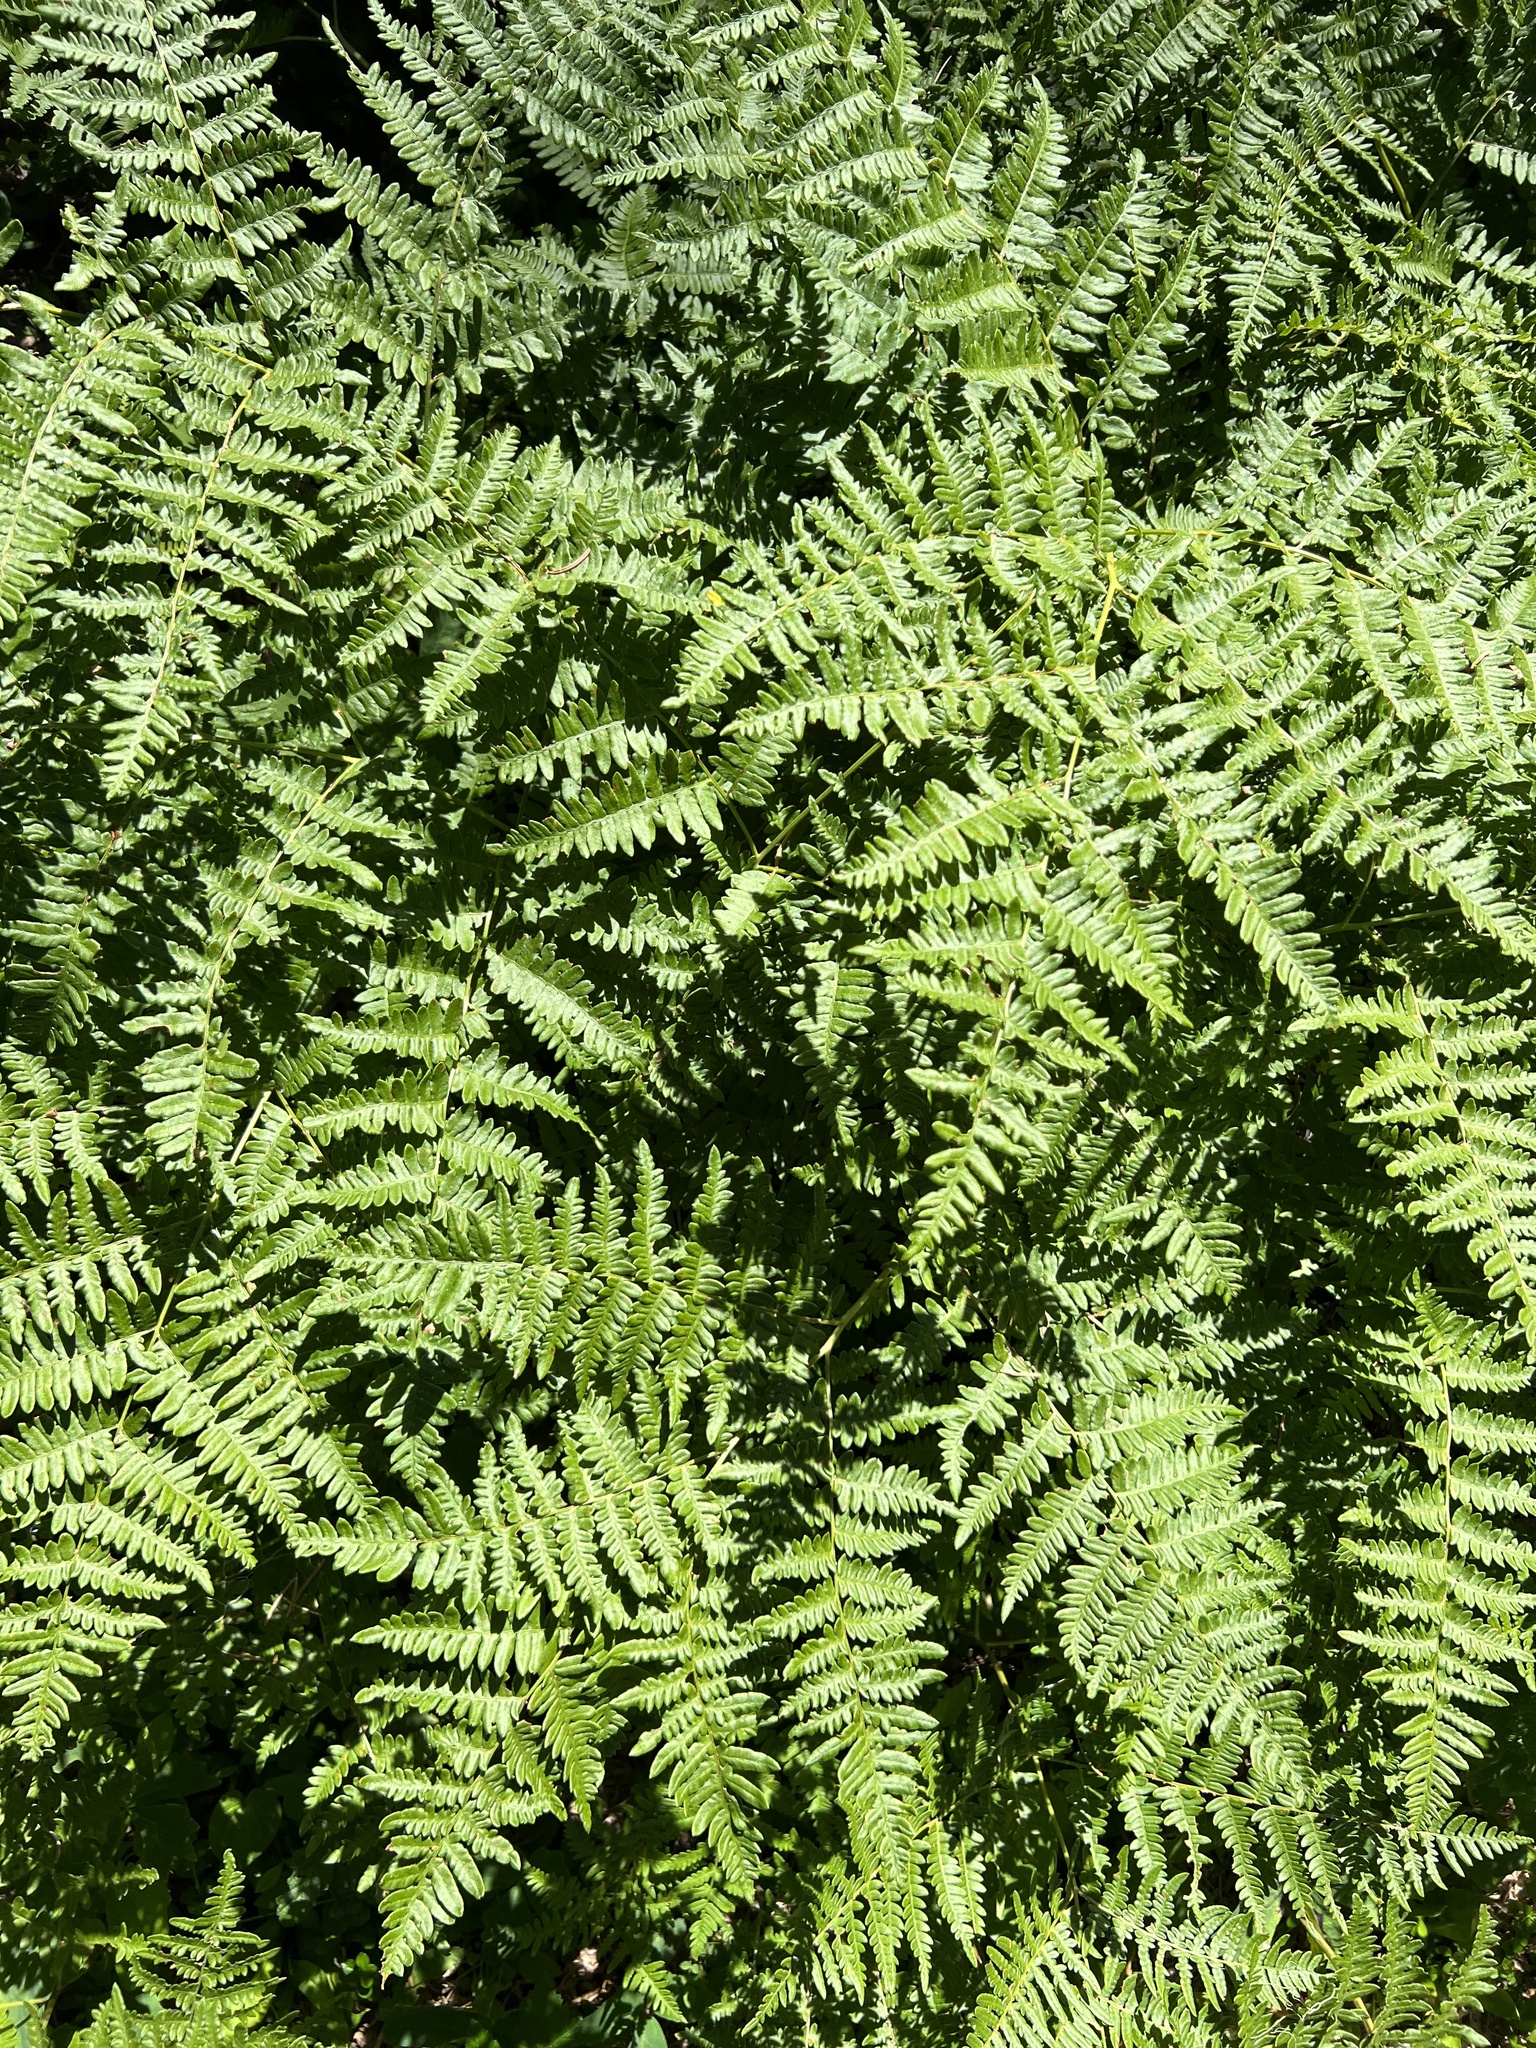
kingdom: Plantae
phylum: Tracheophyta
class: Polypodiopsida
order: Polypodiales
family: Dennstaedtiaceae
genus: Pteridium
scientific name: Pteridium aquilinum
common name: Bracken
